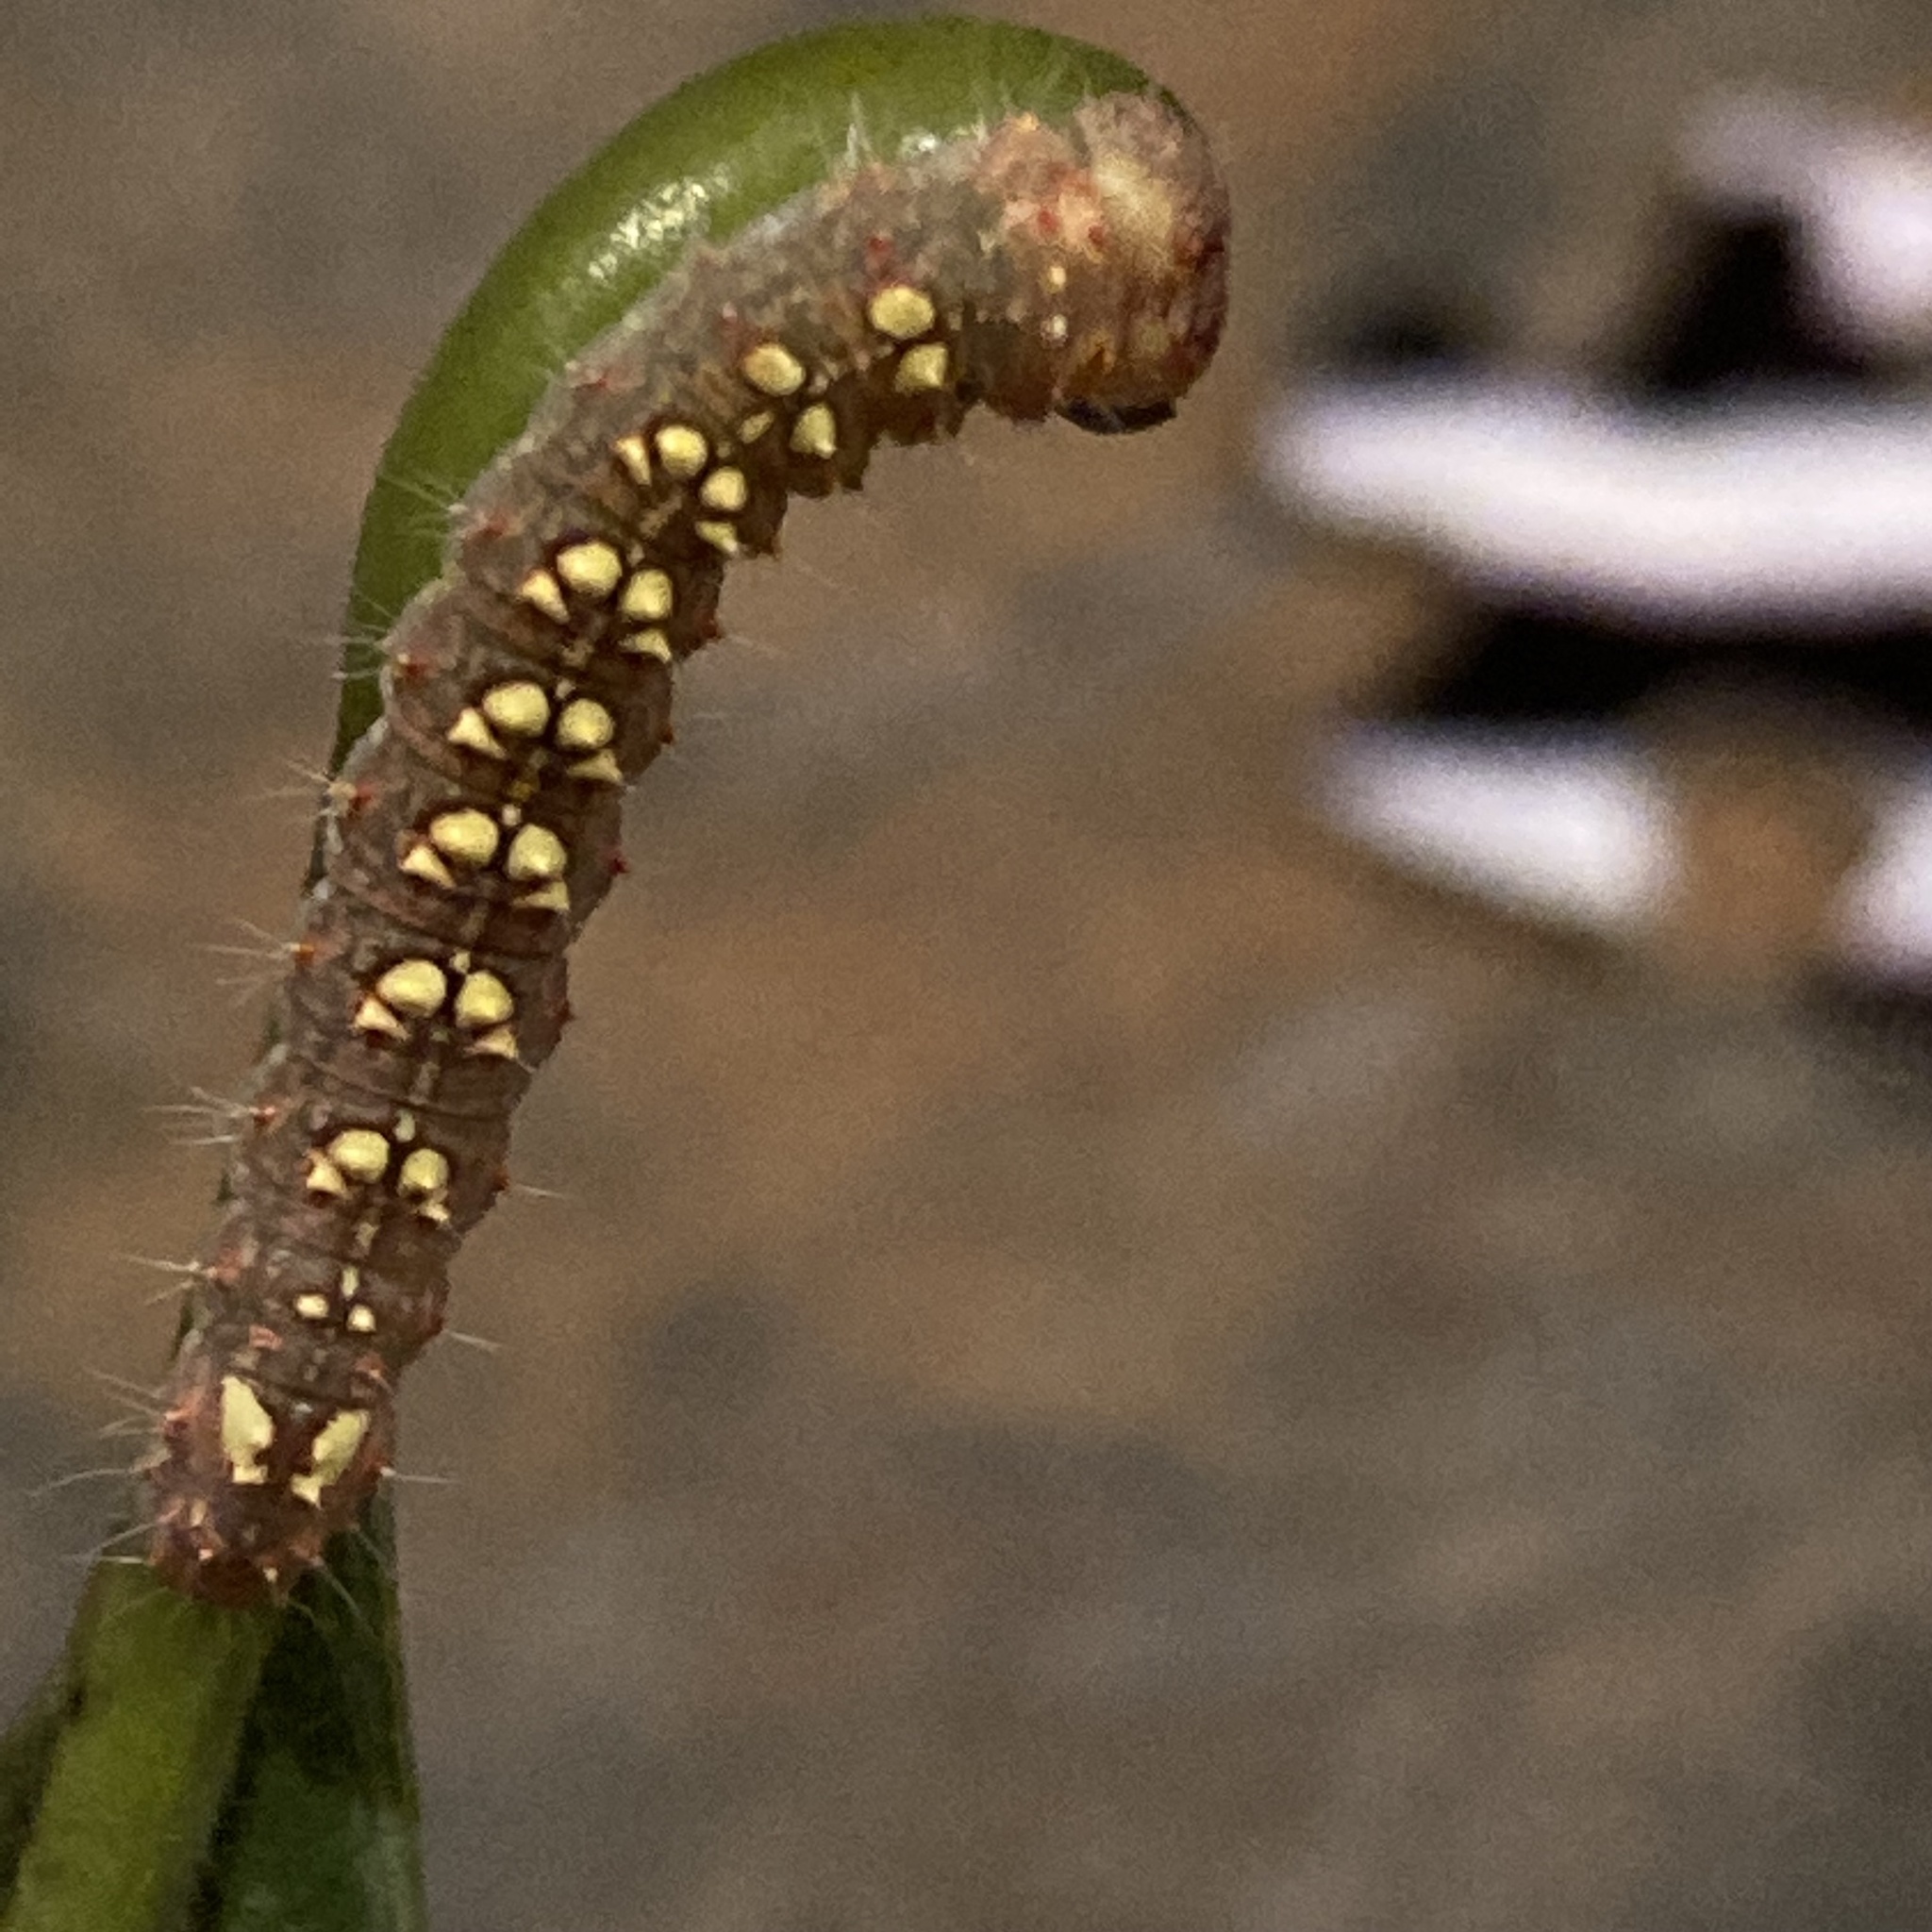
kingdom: Animalia
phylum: Arthropoda
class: Insecta
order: Lepidoptera
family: Noctuidae
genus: Acronicta
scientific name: Acronicta increta
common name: Eclipsed oak dagger
